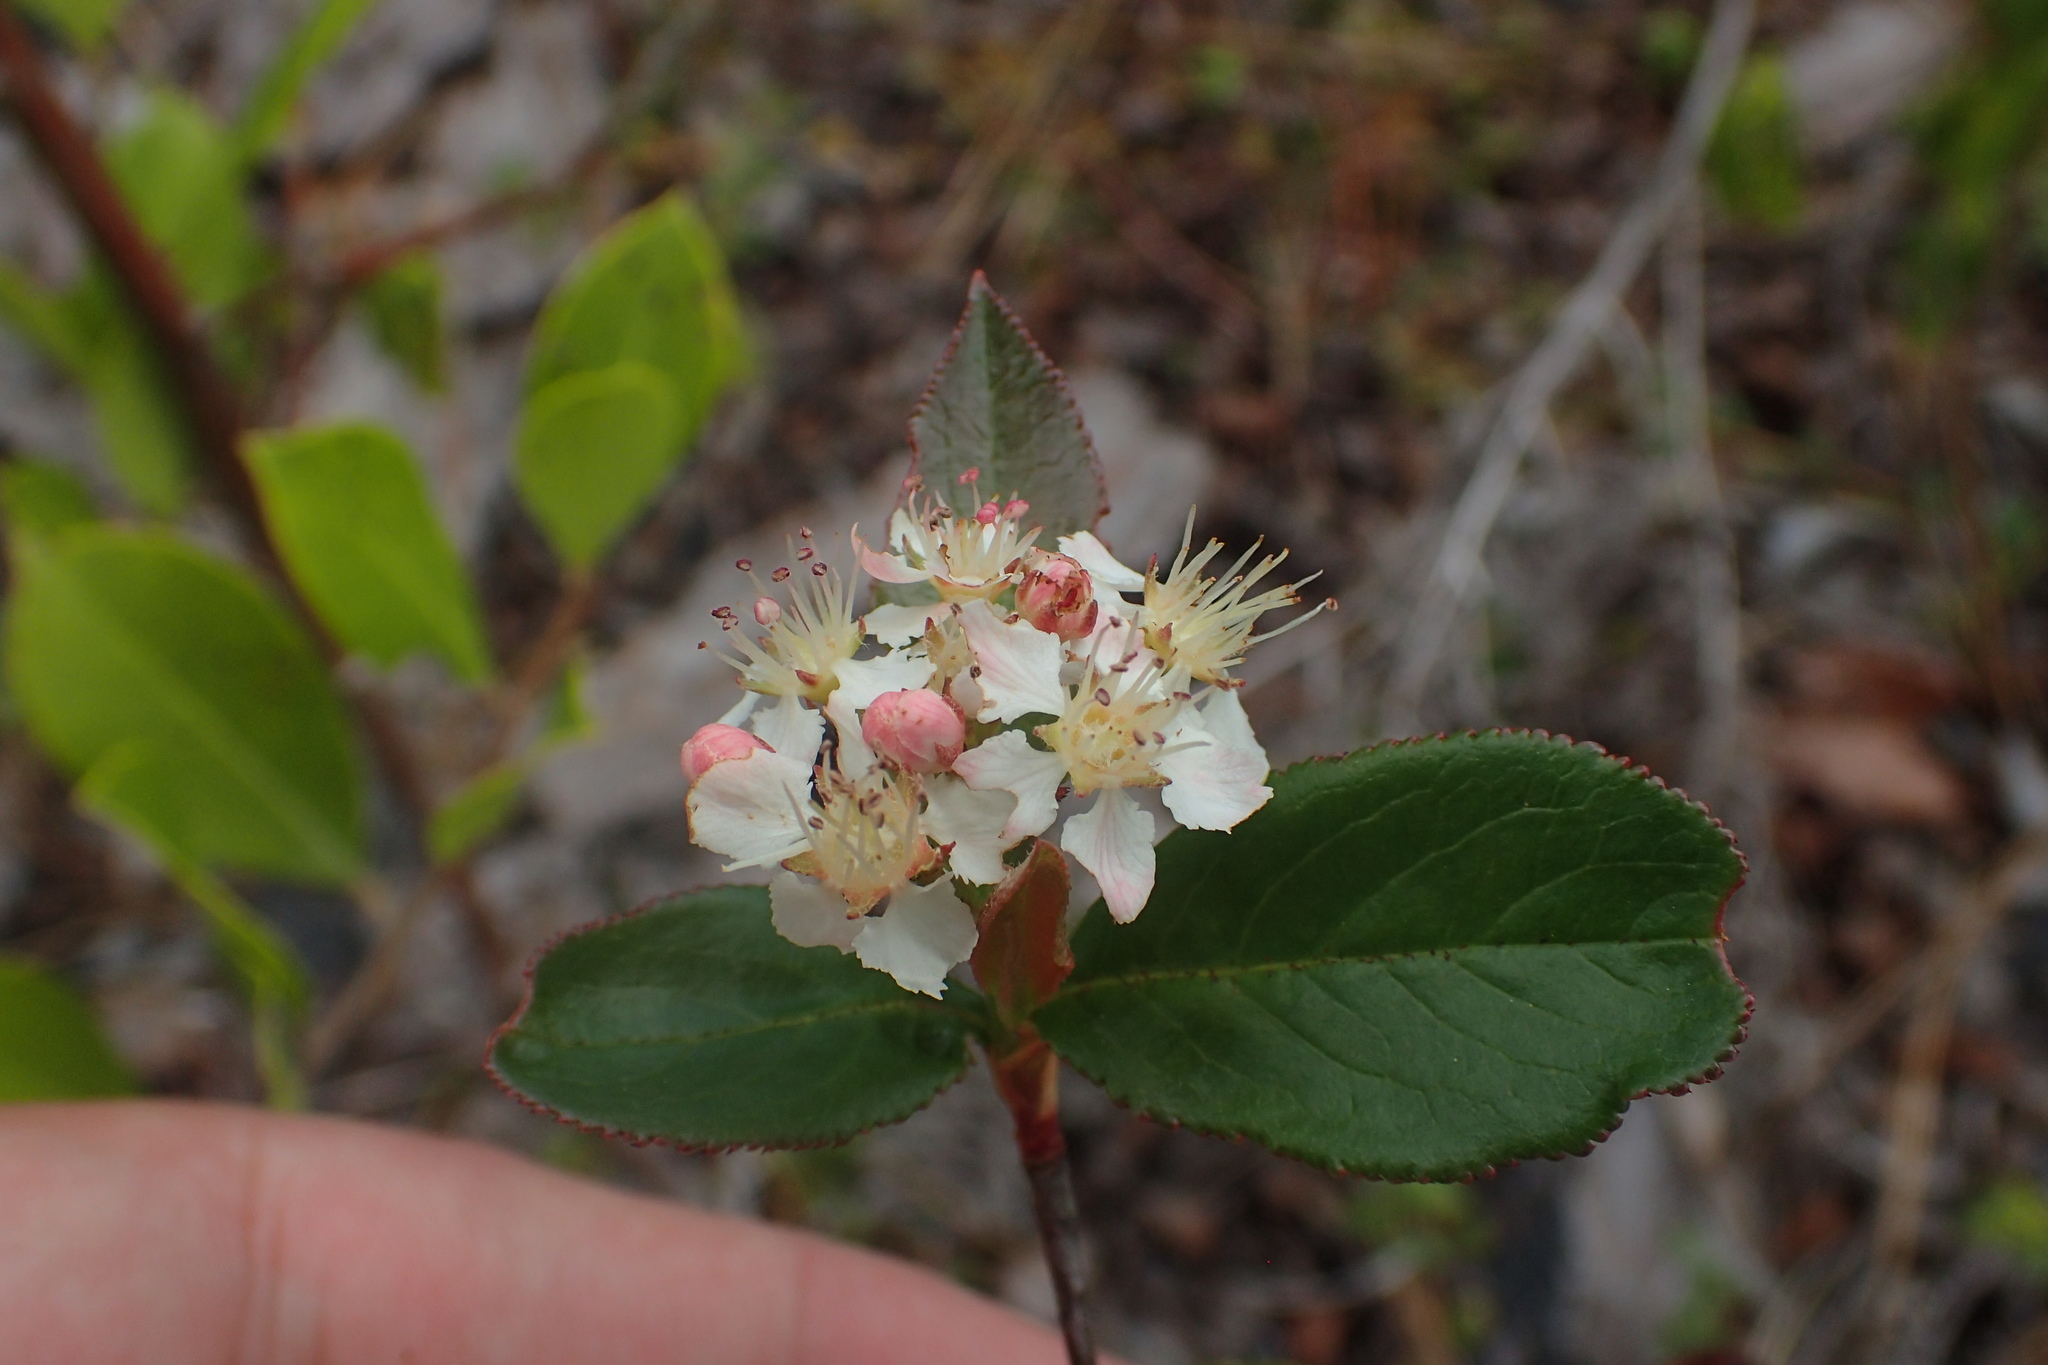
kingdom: Plantae
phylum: Tracheophyta
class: Magnoliopsida
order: Rosales
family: Rosaceae
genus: Aronia
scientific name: Aronia arbutifolia
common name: Red chokeberry
